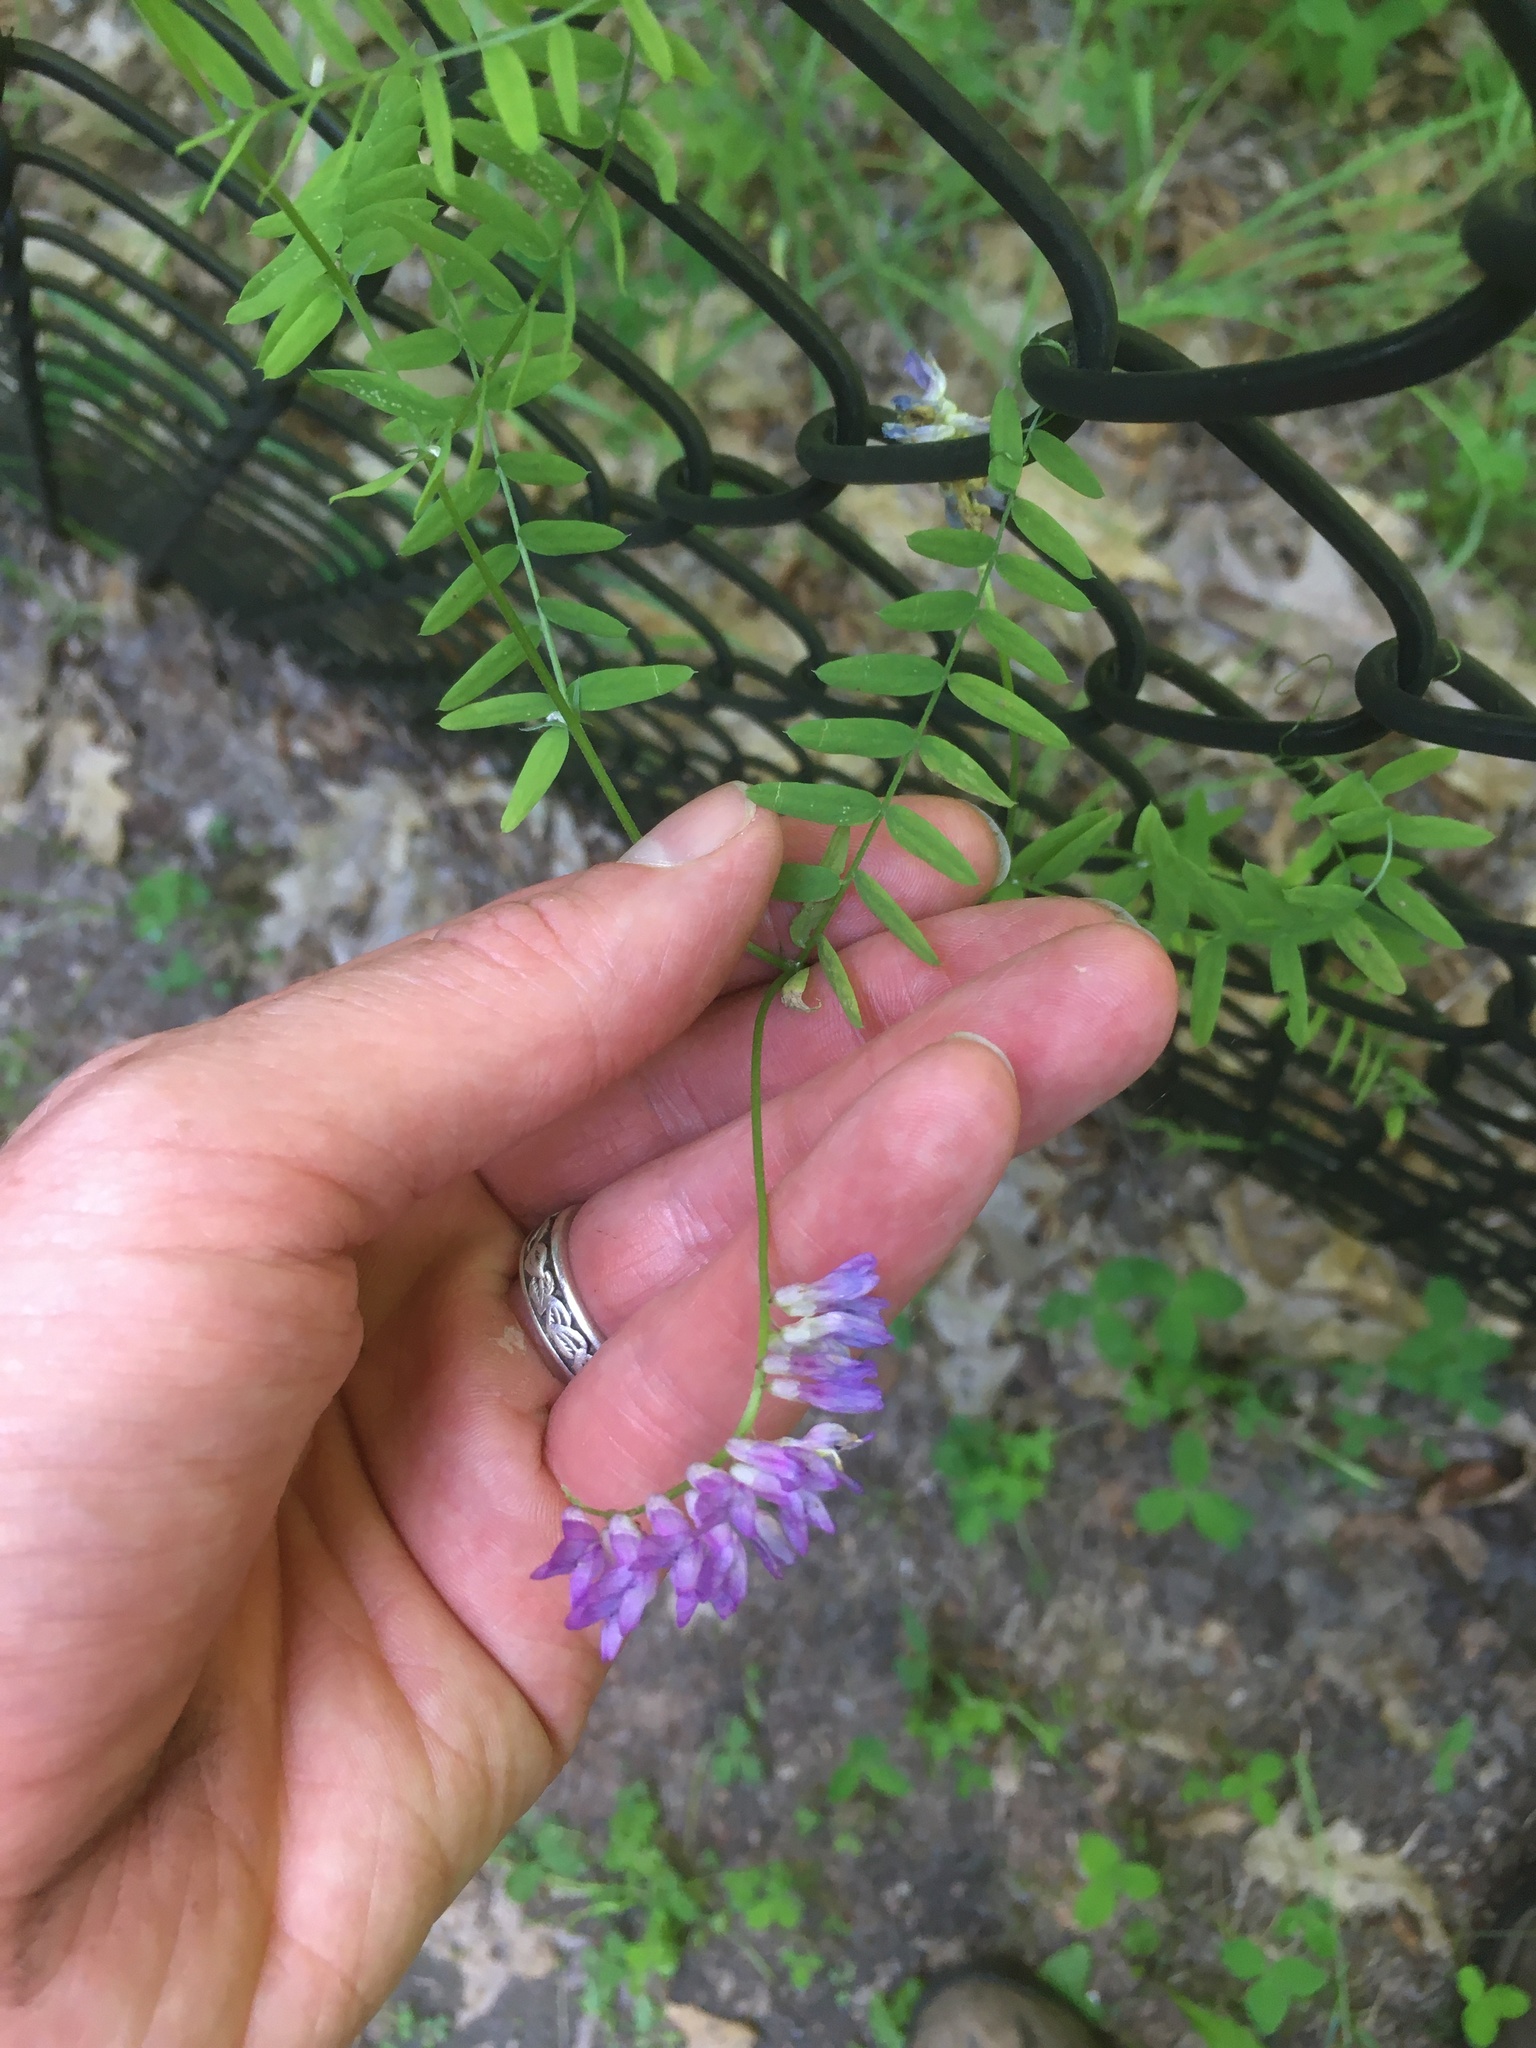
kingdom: Plantae
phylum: Tracheophyta
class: Magnoliopsida
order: Fabales
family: Fabaceae
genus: Vicia
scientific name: Vicia cracca
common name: Bird vetch
